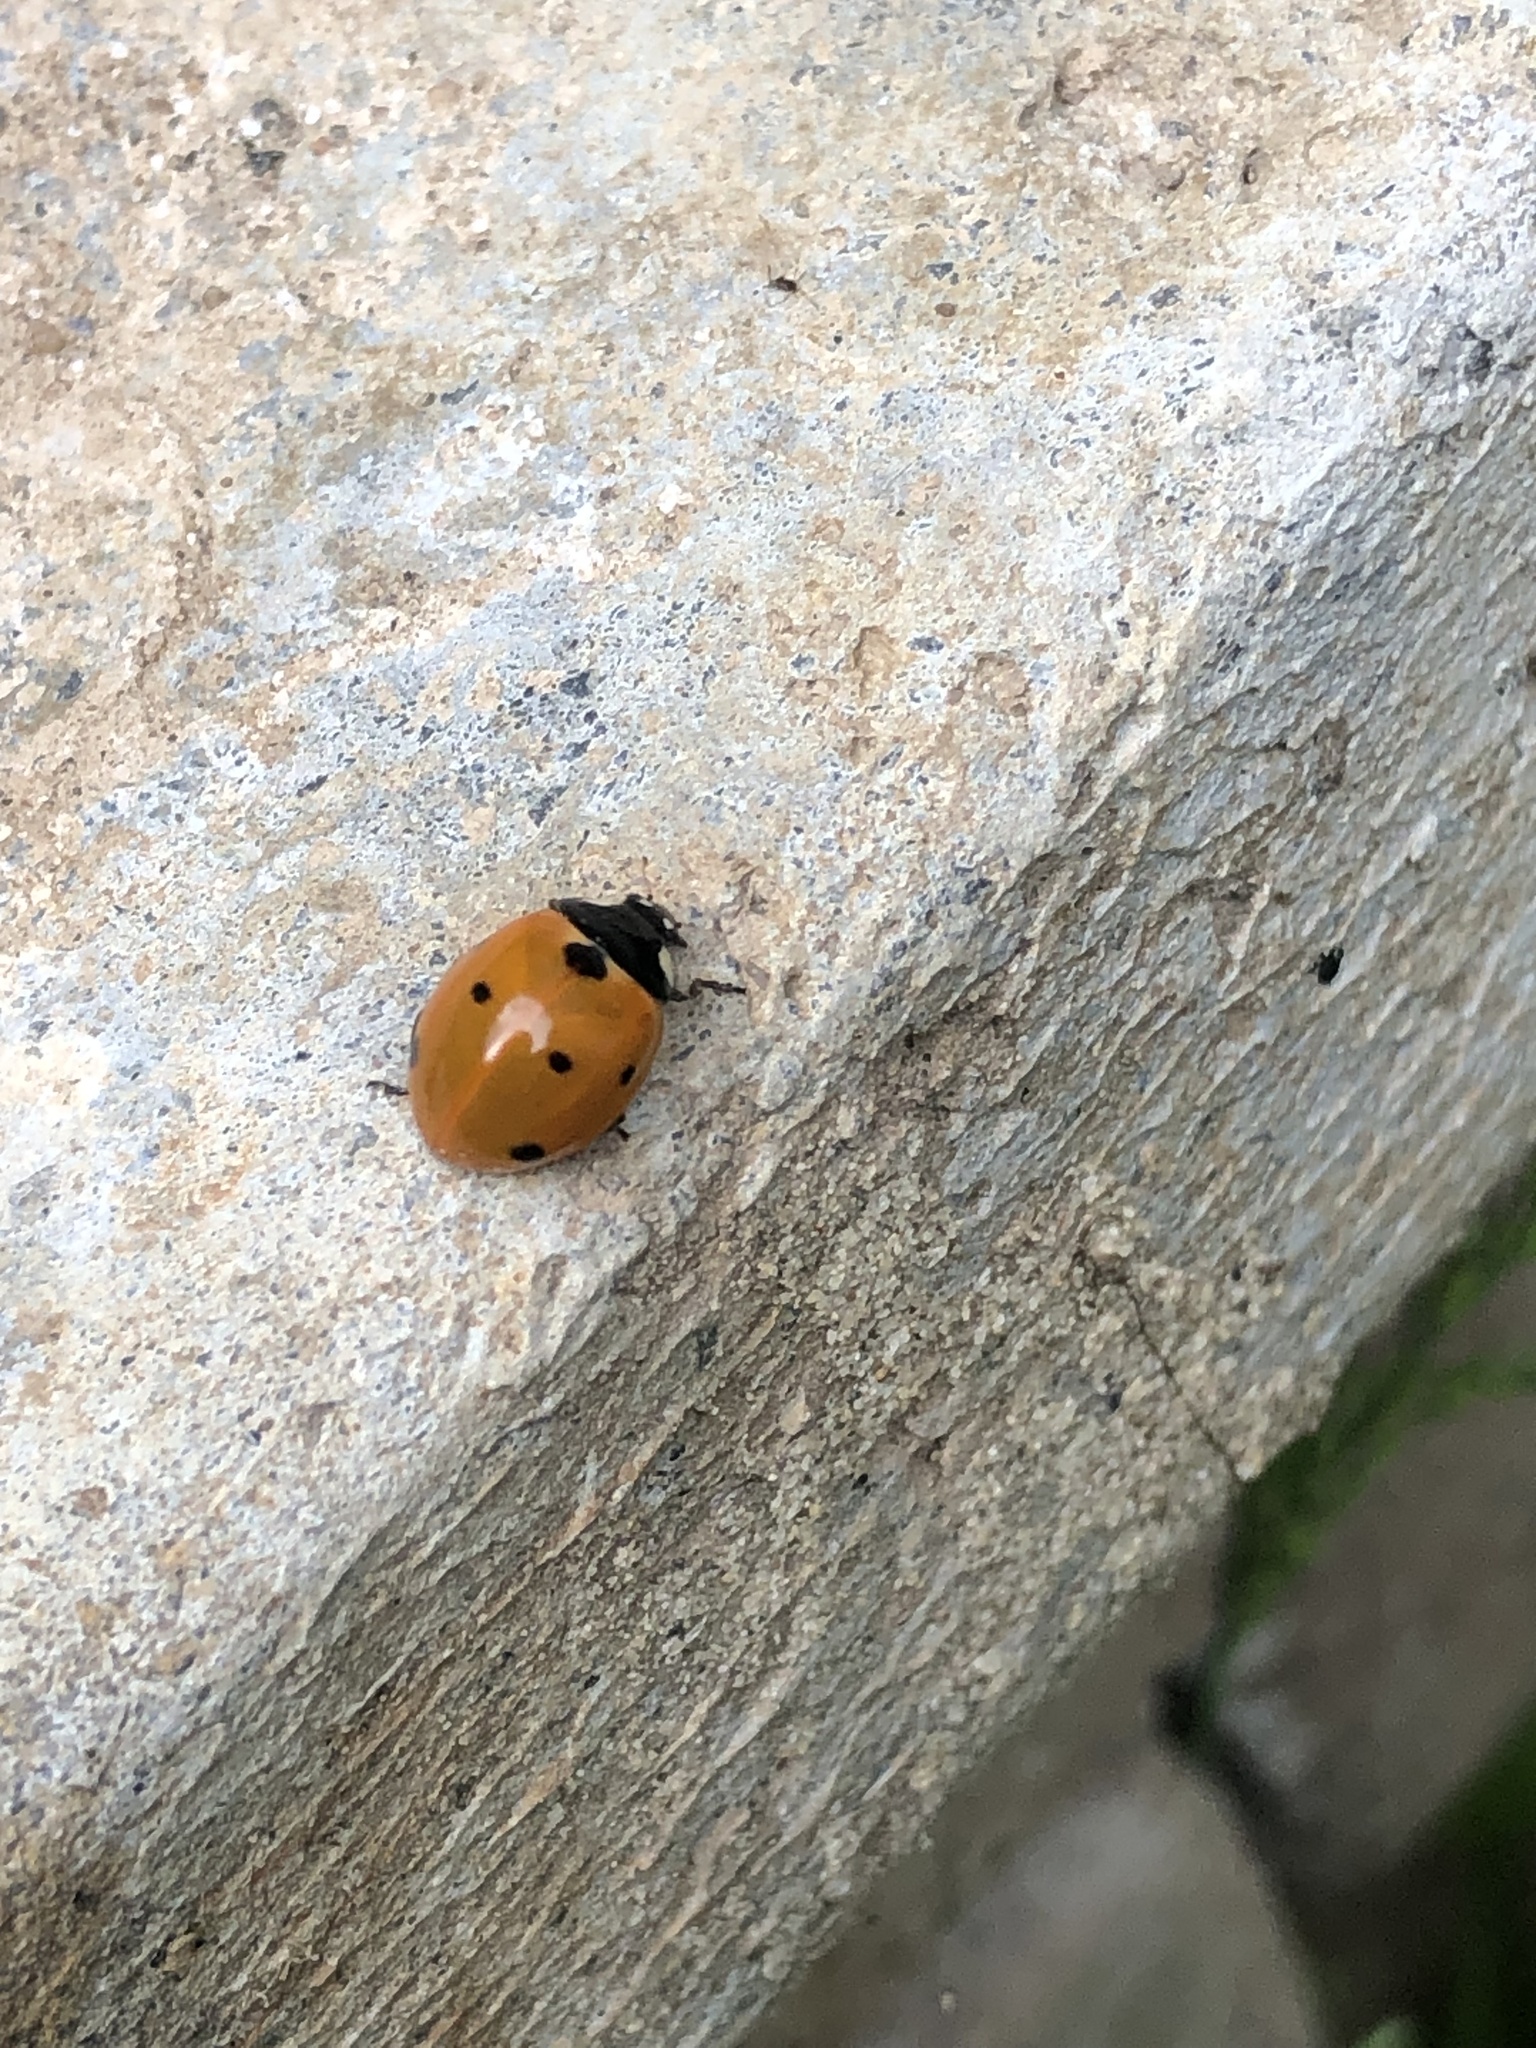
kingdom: Animalia
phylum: Arthropoda
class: Insecta
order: Coleoptera
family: Coccinellidae
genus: Coccinella
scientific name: Coccinella septempunctata
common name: Sevenspotted lady beetle
